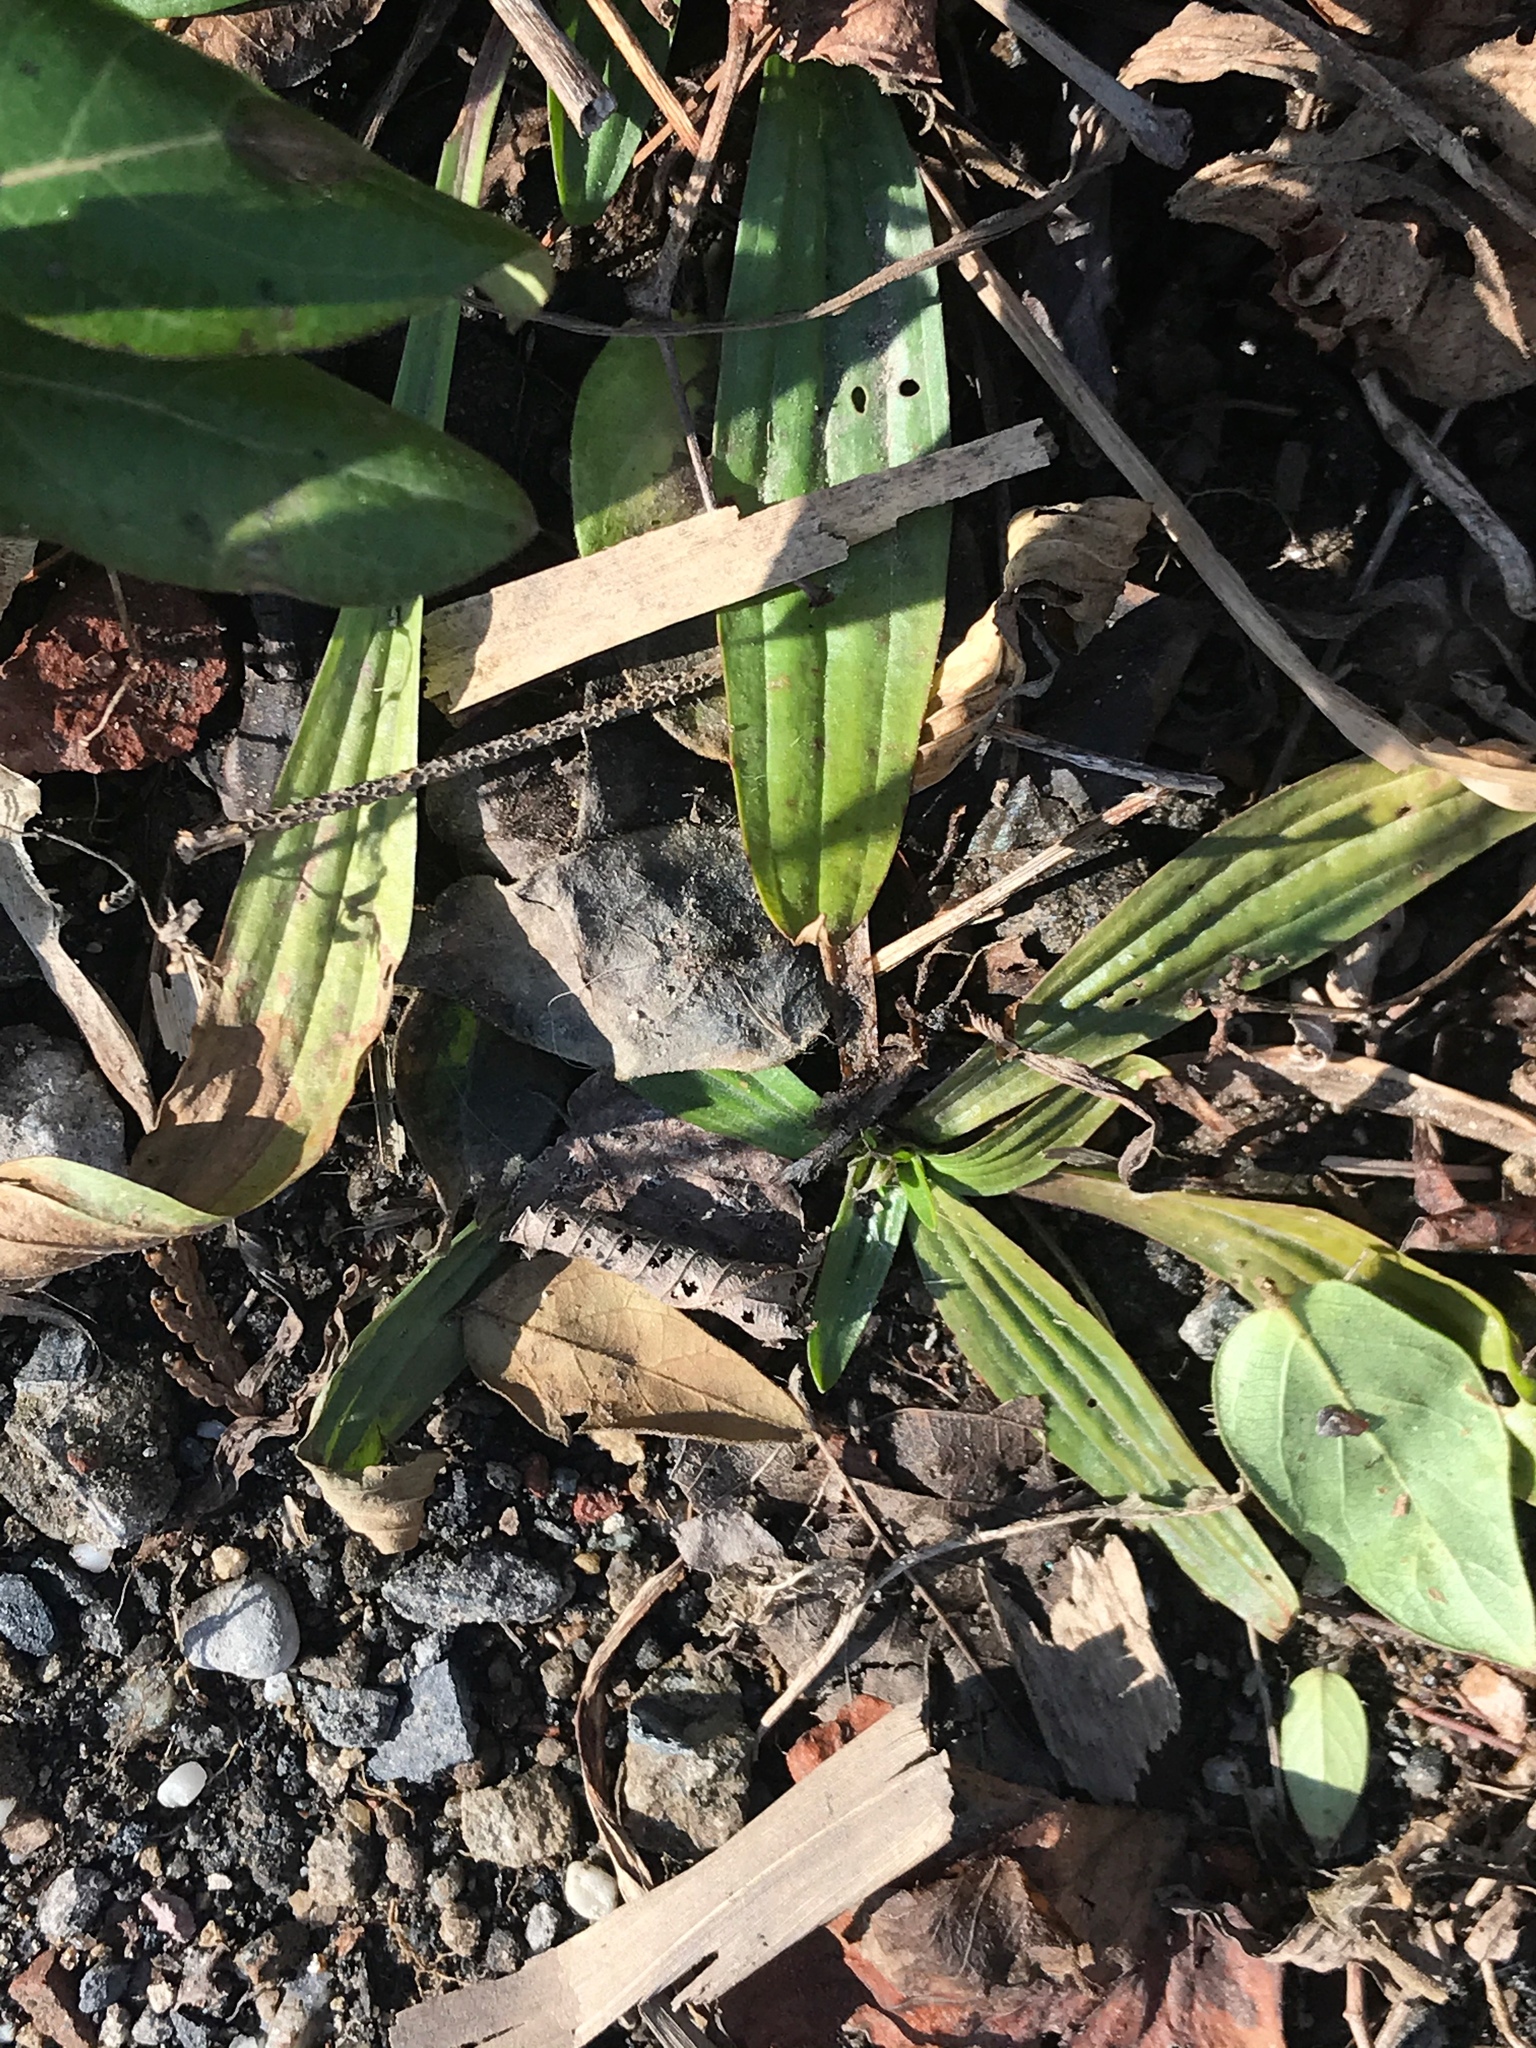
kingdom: Plantae
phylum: Tracheophyta
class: Magnoliopsida
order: Lamiales
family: Plantaginaceae
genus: Plantago
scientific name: Plantago lanceolata
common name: Ribwort plantain
